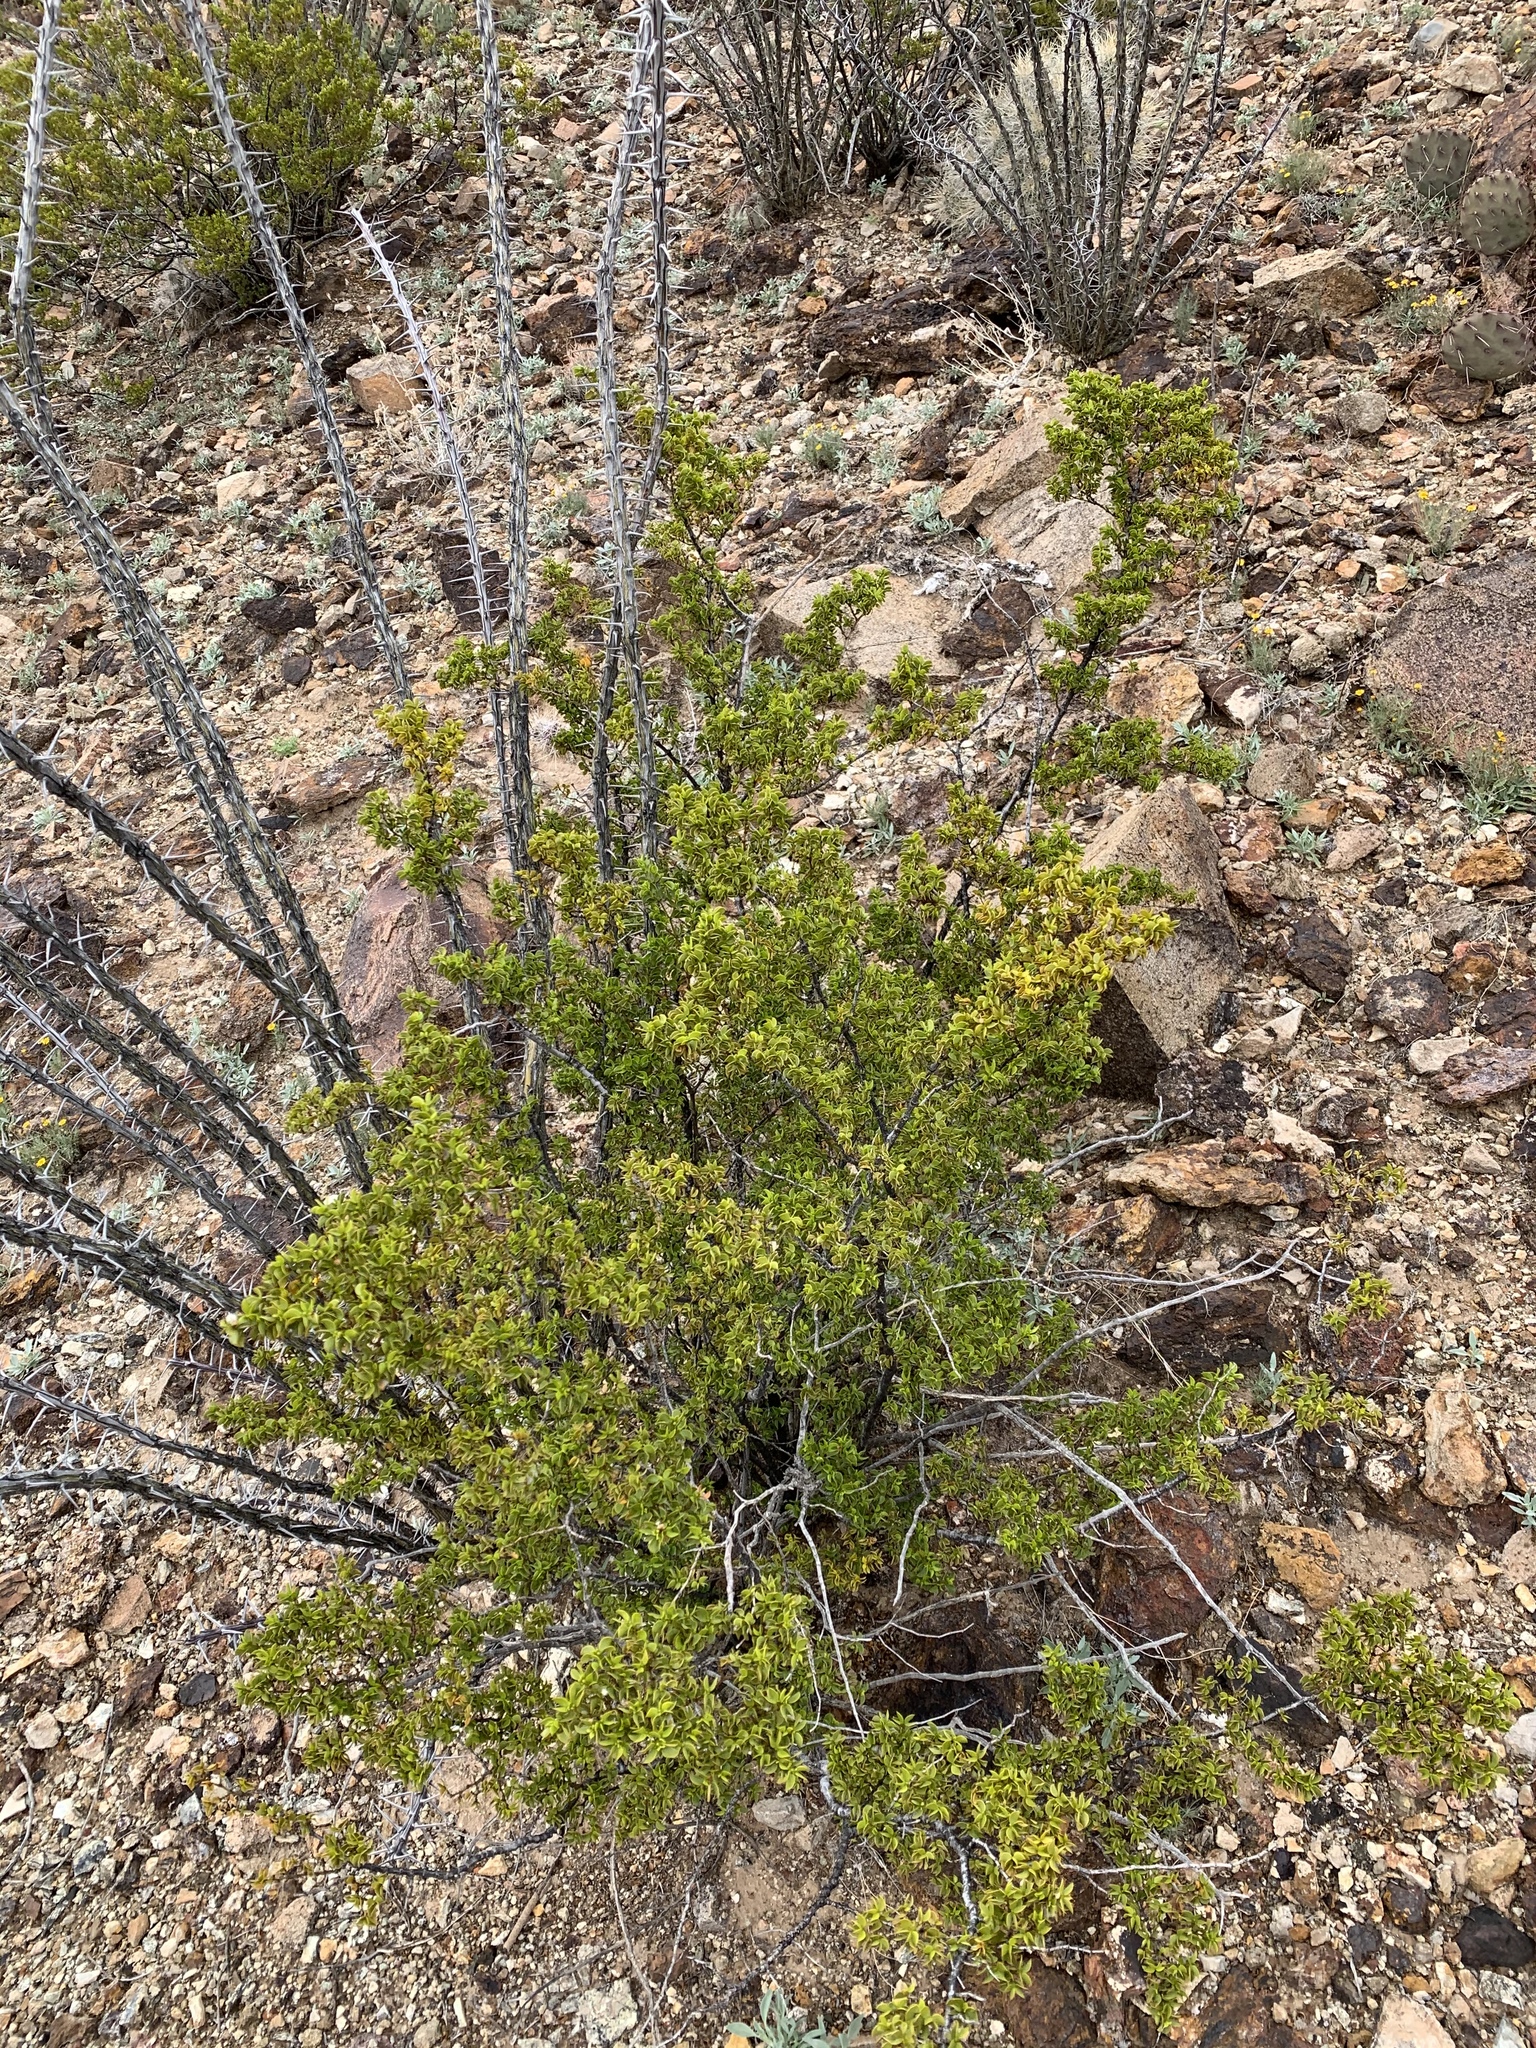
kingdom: Plantae
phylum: Tracheophyta
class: Magnoliopsida
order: Zygophyllales
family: Zygophyllaceae
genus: Larrea
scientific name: Larrea tridentata
